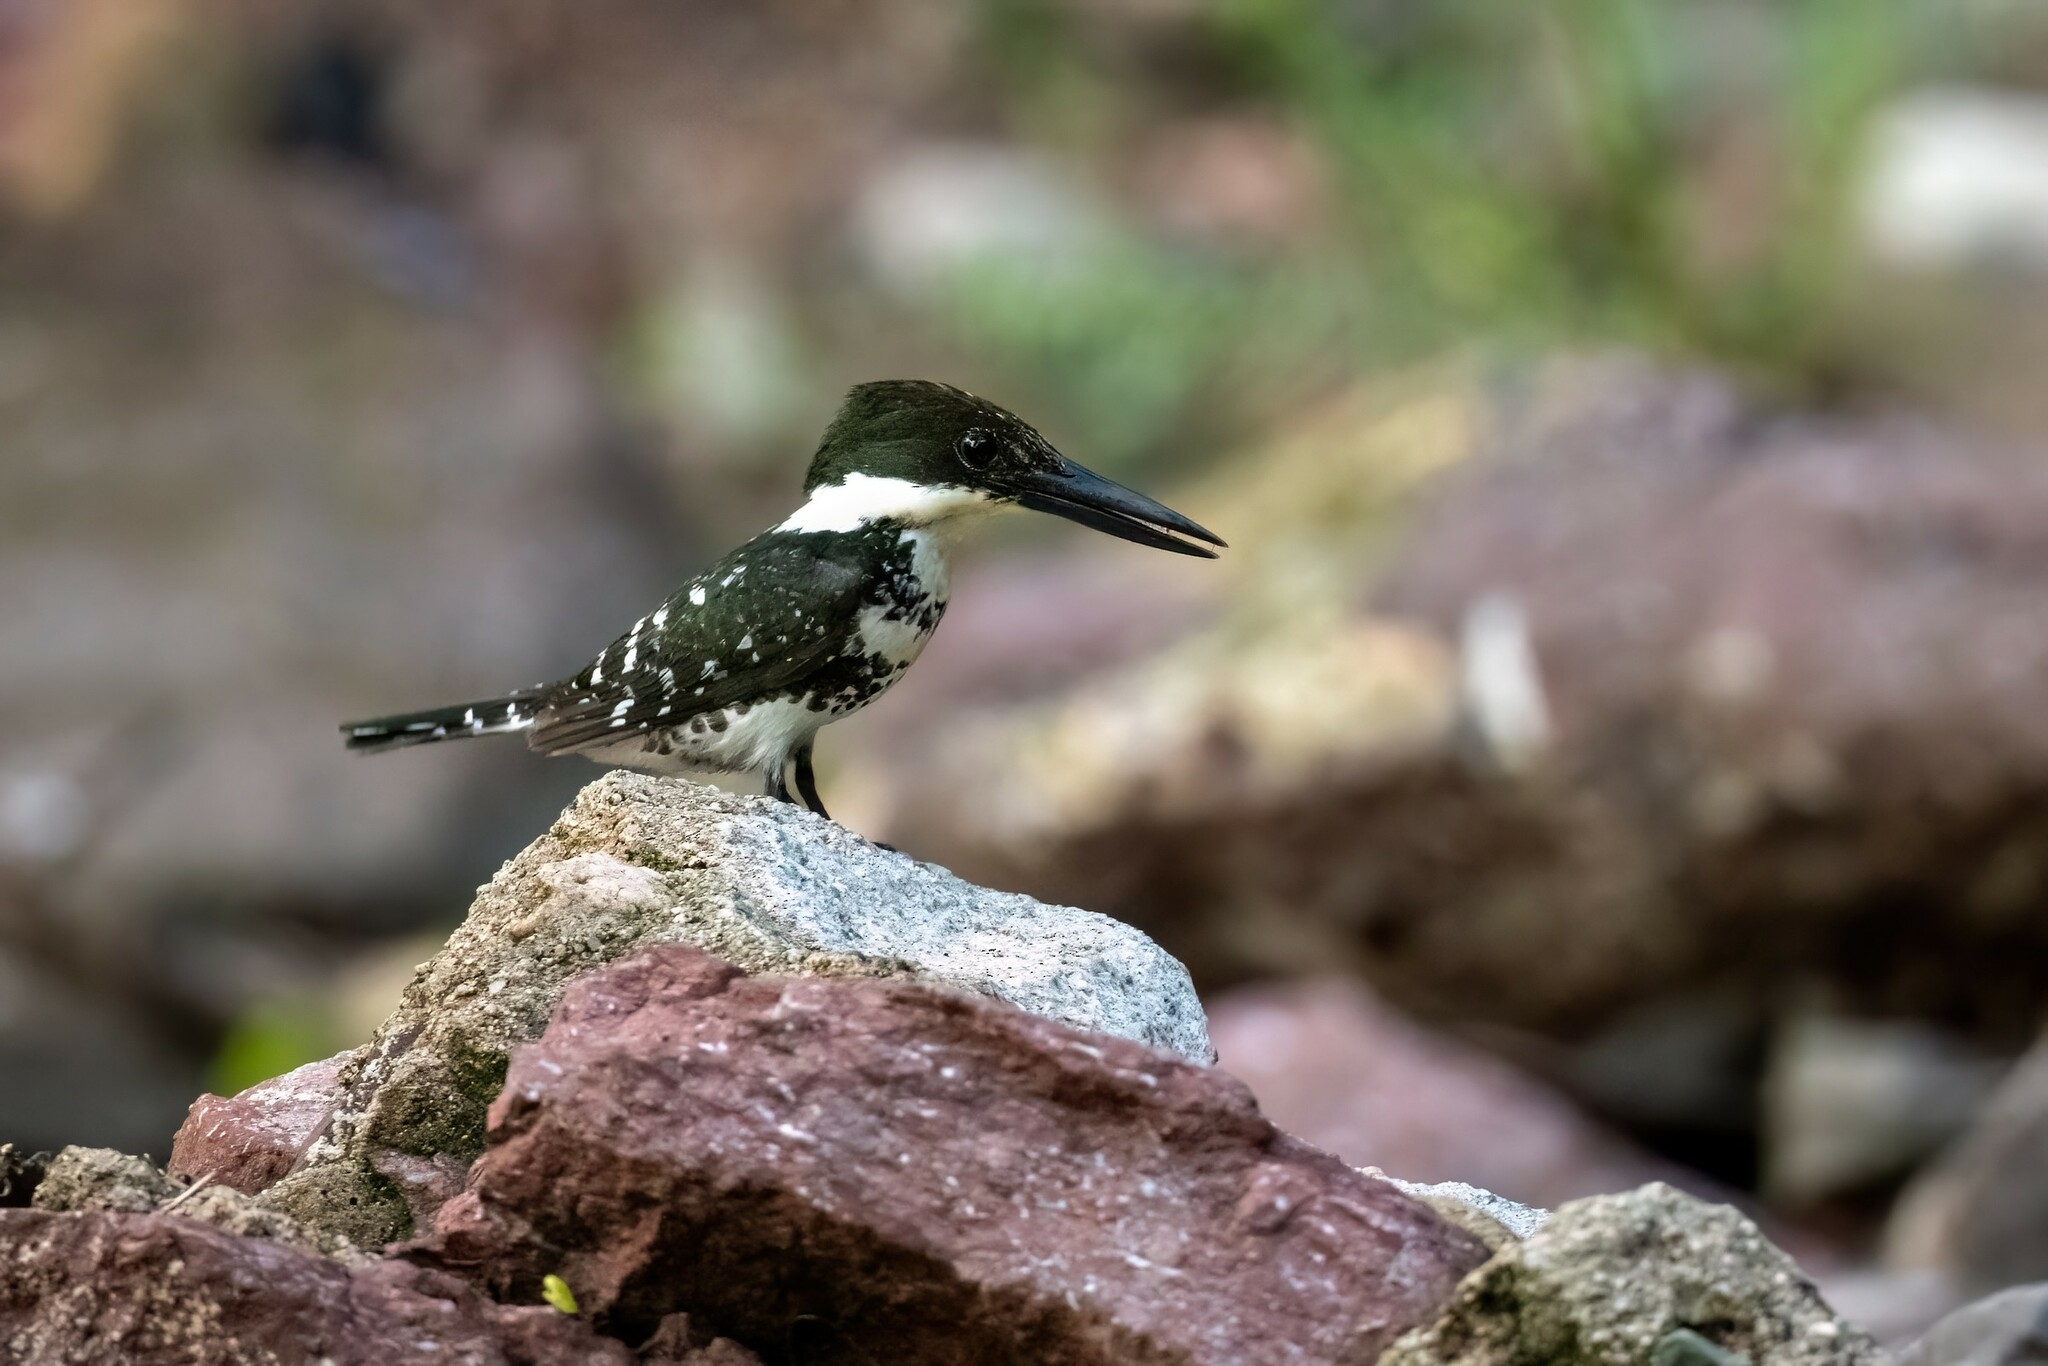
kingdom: Animalia
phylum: Chordata
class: Aves
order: Coraciiformes
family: Alcedinidae
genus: Chloroceryle
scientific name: Chloroceryle americana
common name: Green kingfisher
